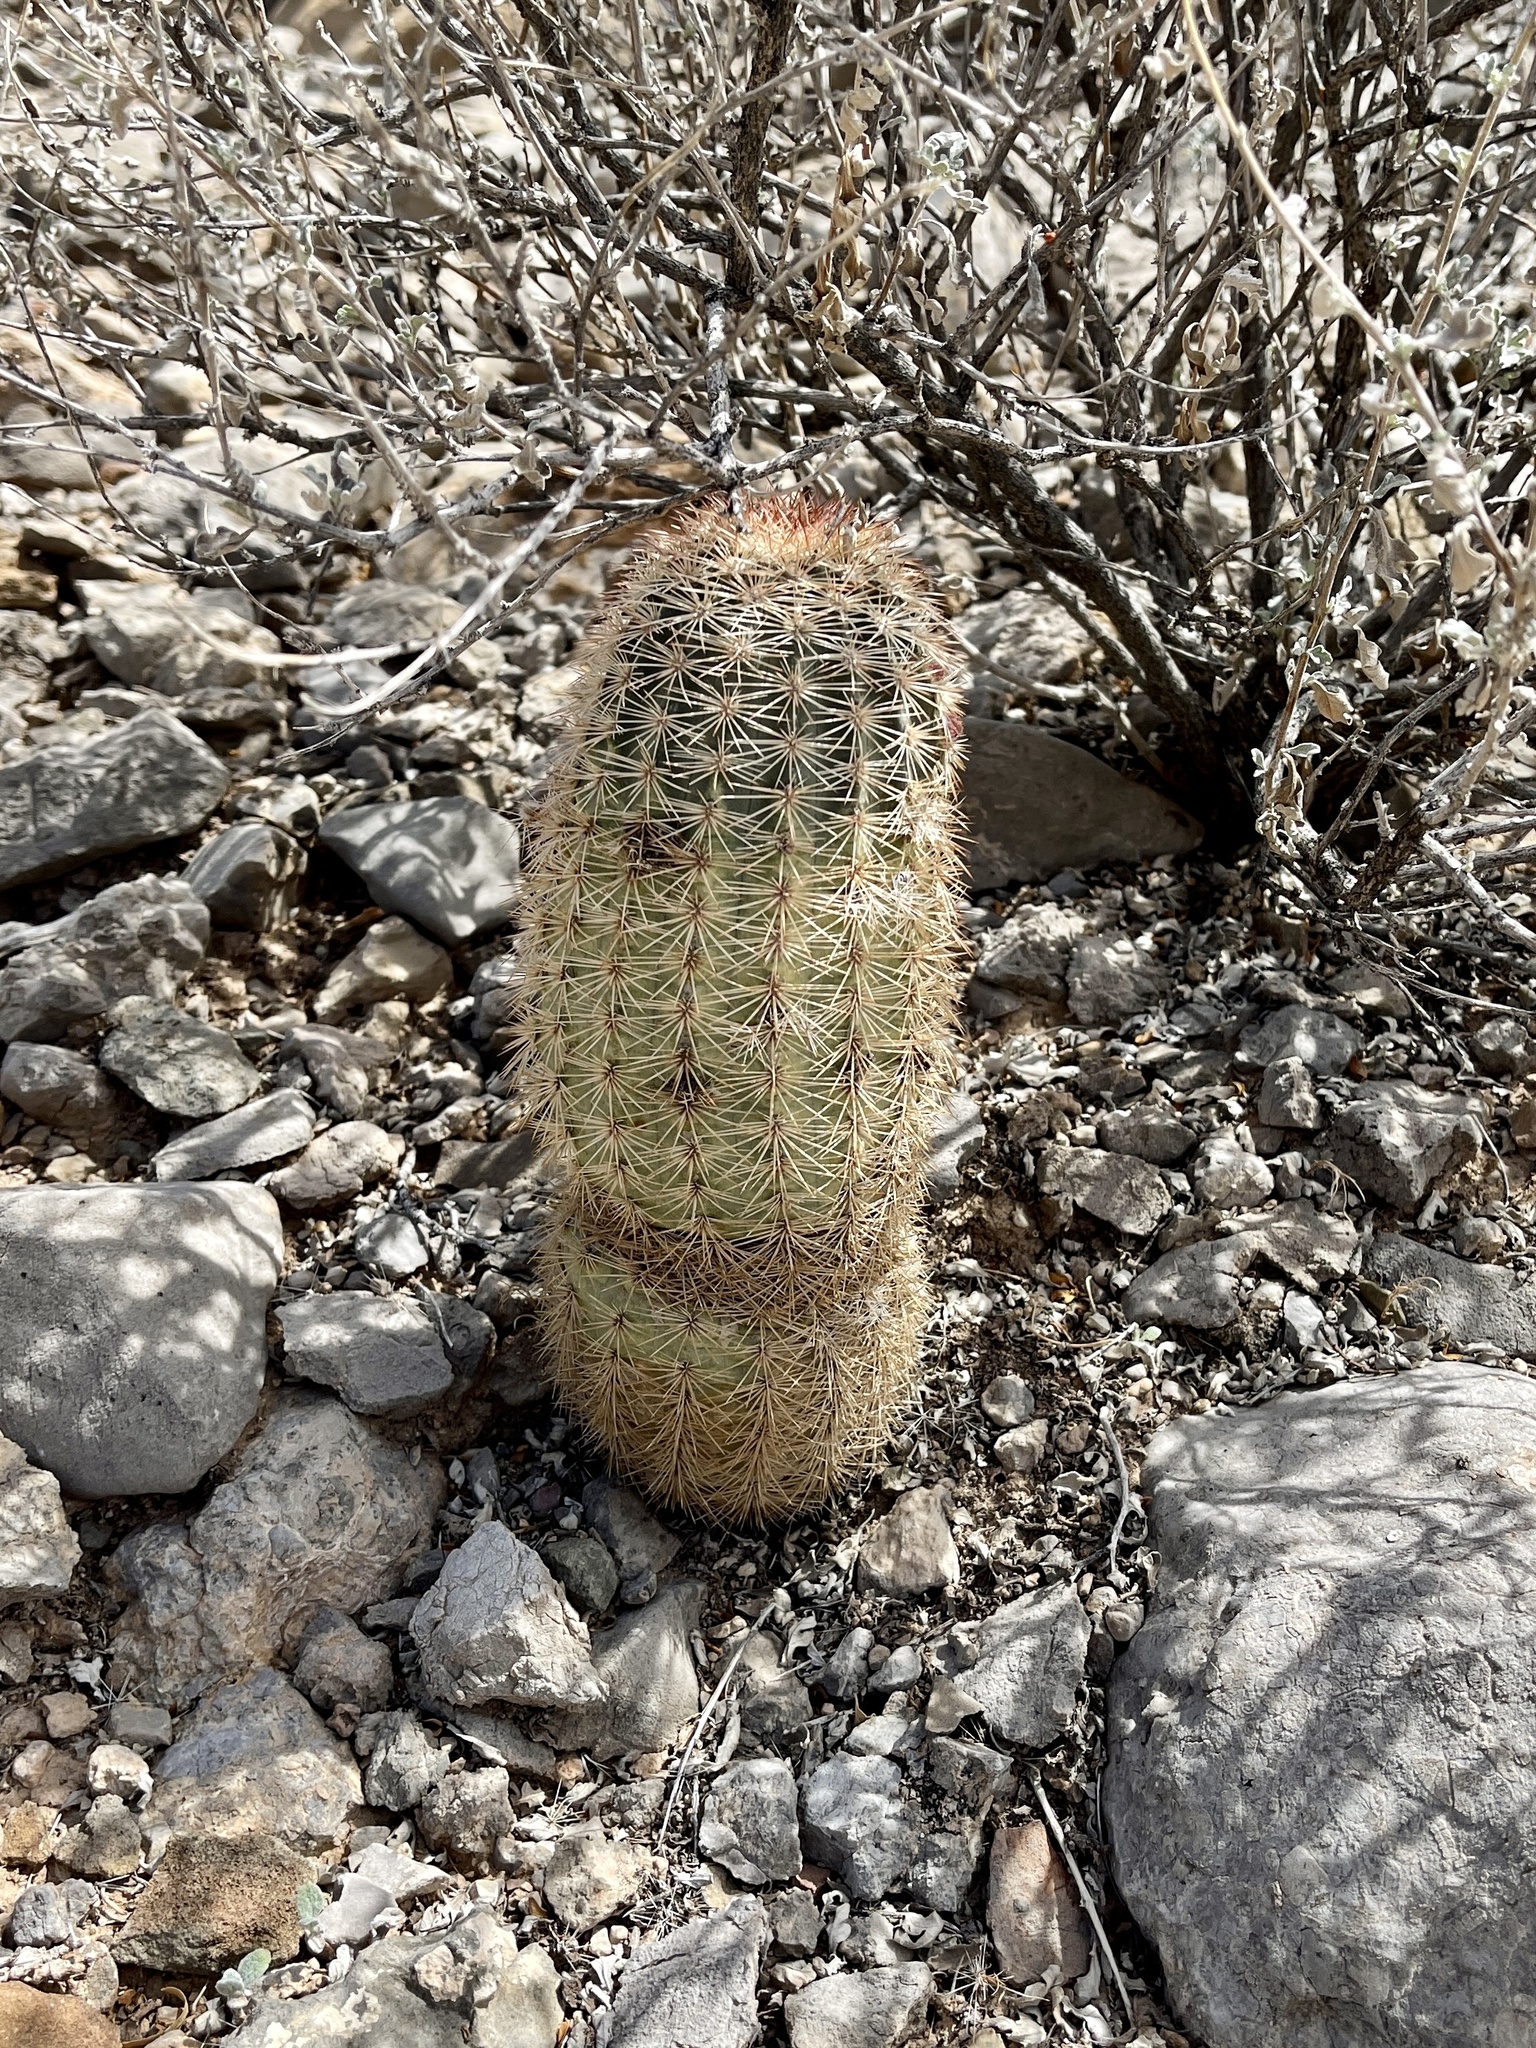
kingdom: Plantae
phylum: Tracheophyta
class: Magnoliopsida
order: Caryophyllales
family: Cactaceae
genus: Echinocereus
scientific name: Echinocereus dasyacanthus
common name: Spiny hedgehog cactus
